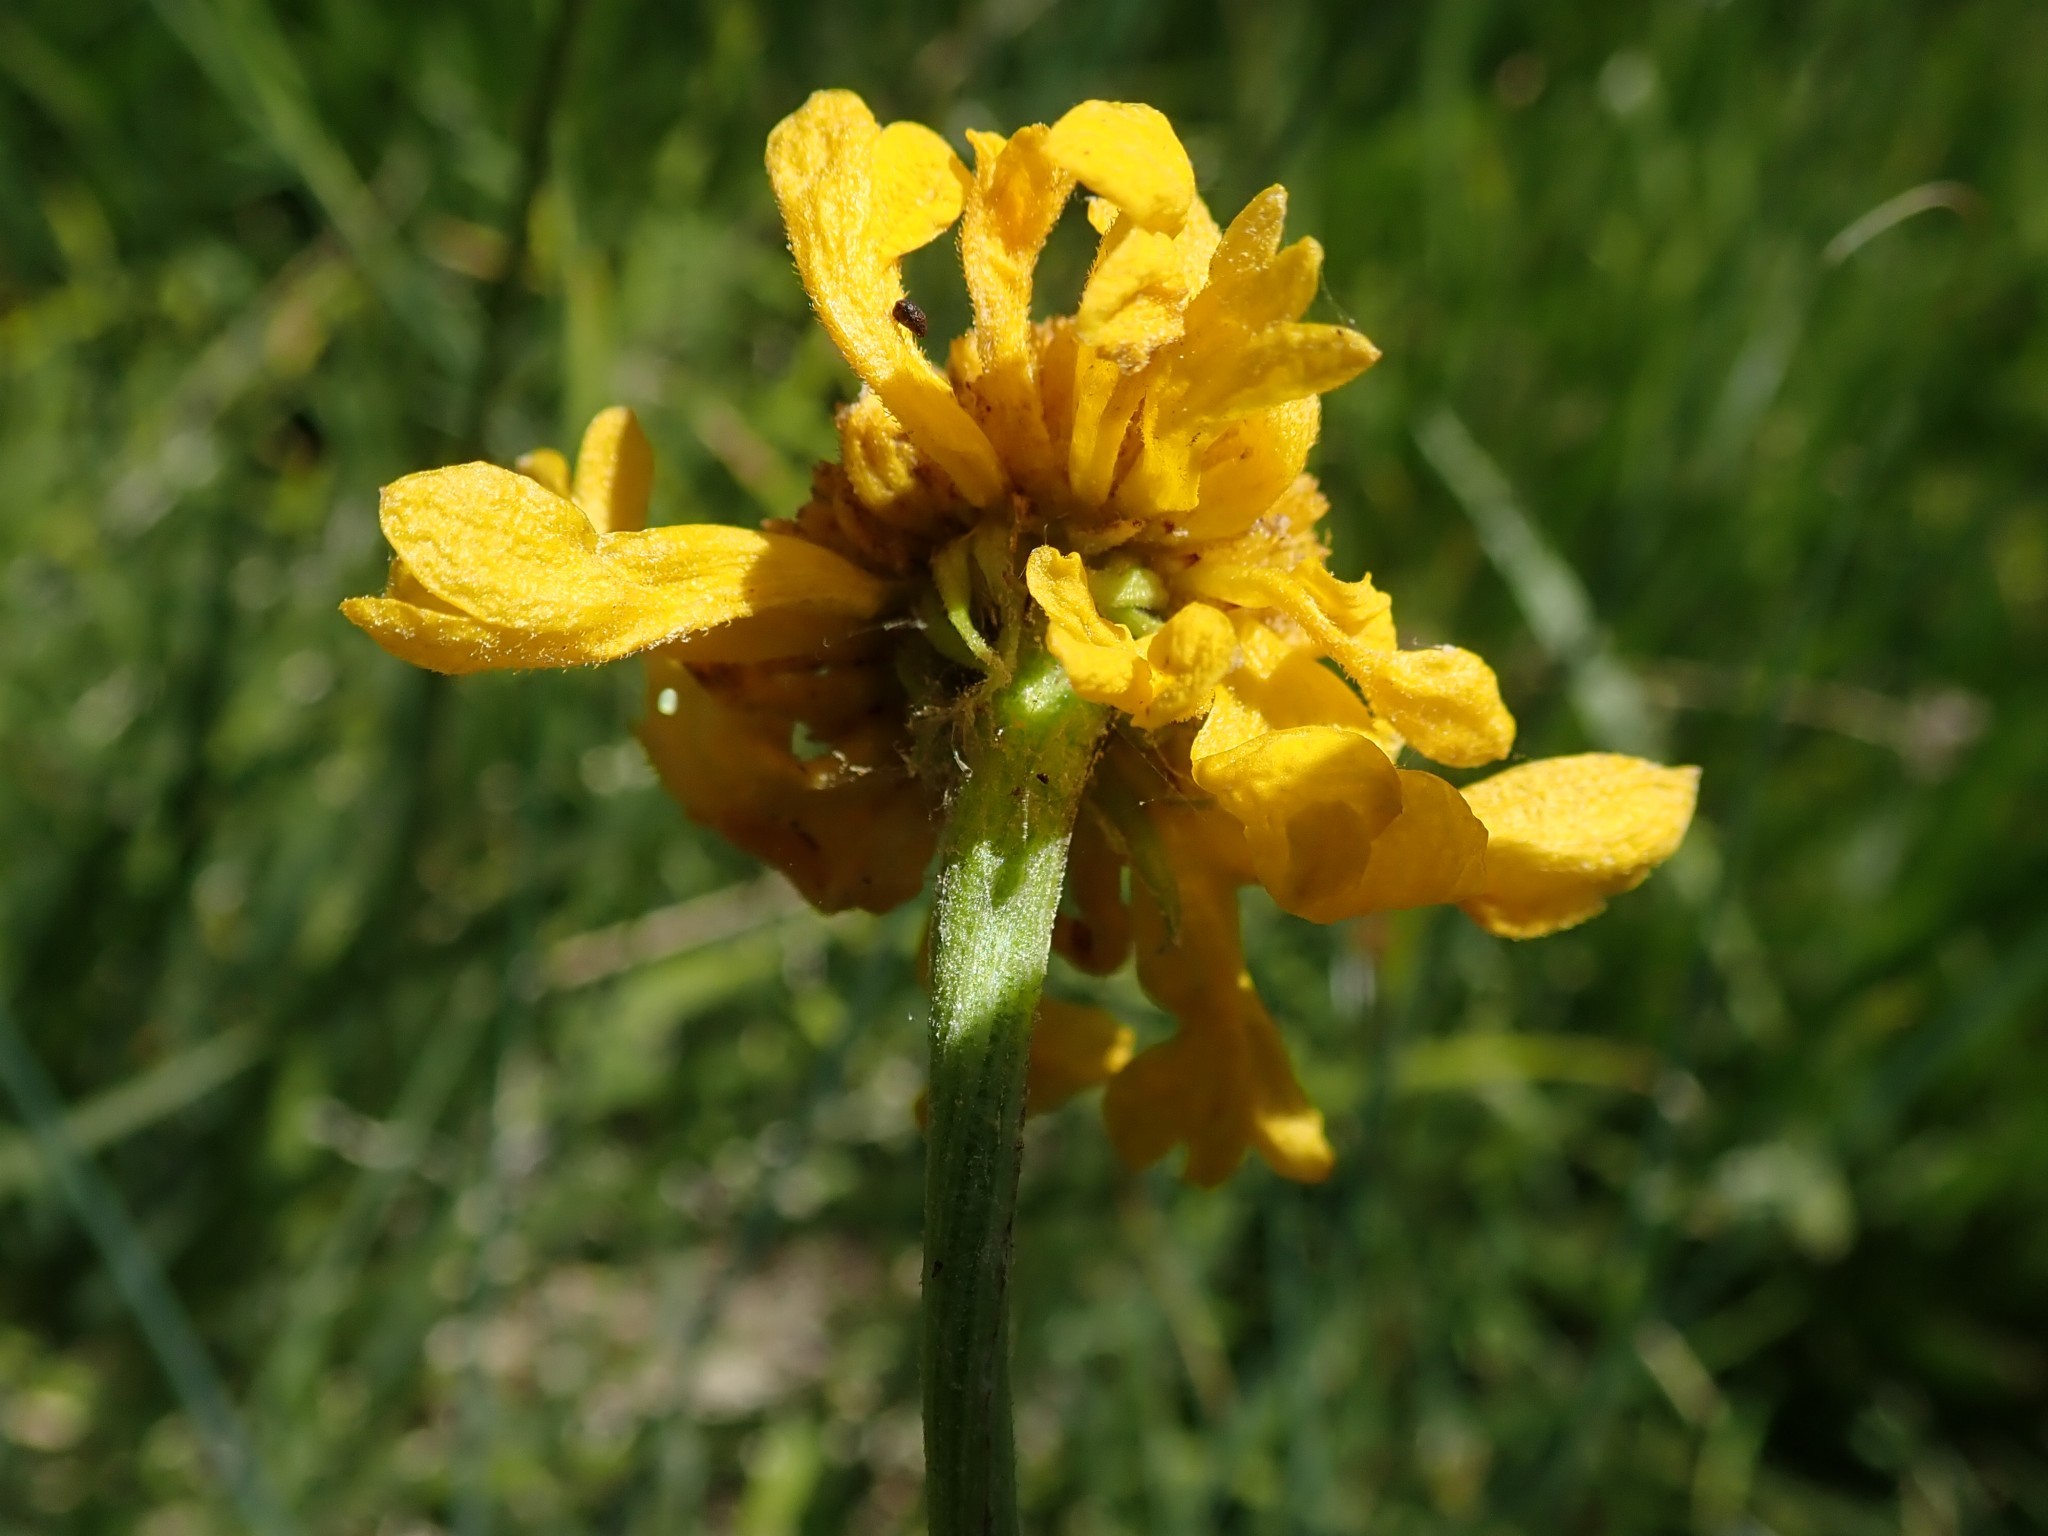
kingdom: Plantae
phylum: Tracheophyta
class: Magnoliopsida
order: Asterales
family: Asteraceae
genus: Helenium
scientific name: Helenium bigelovii
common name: Bigelow's sneezeweed
